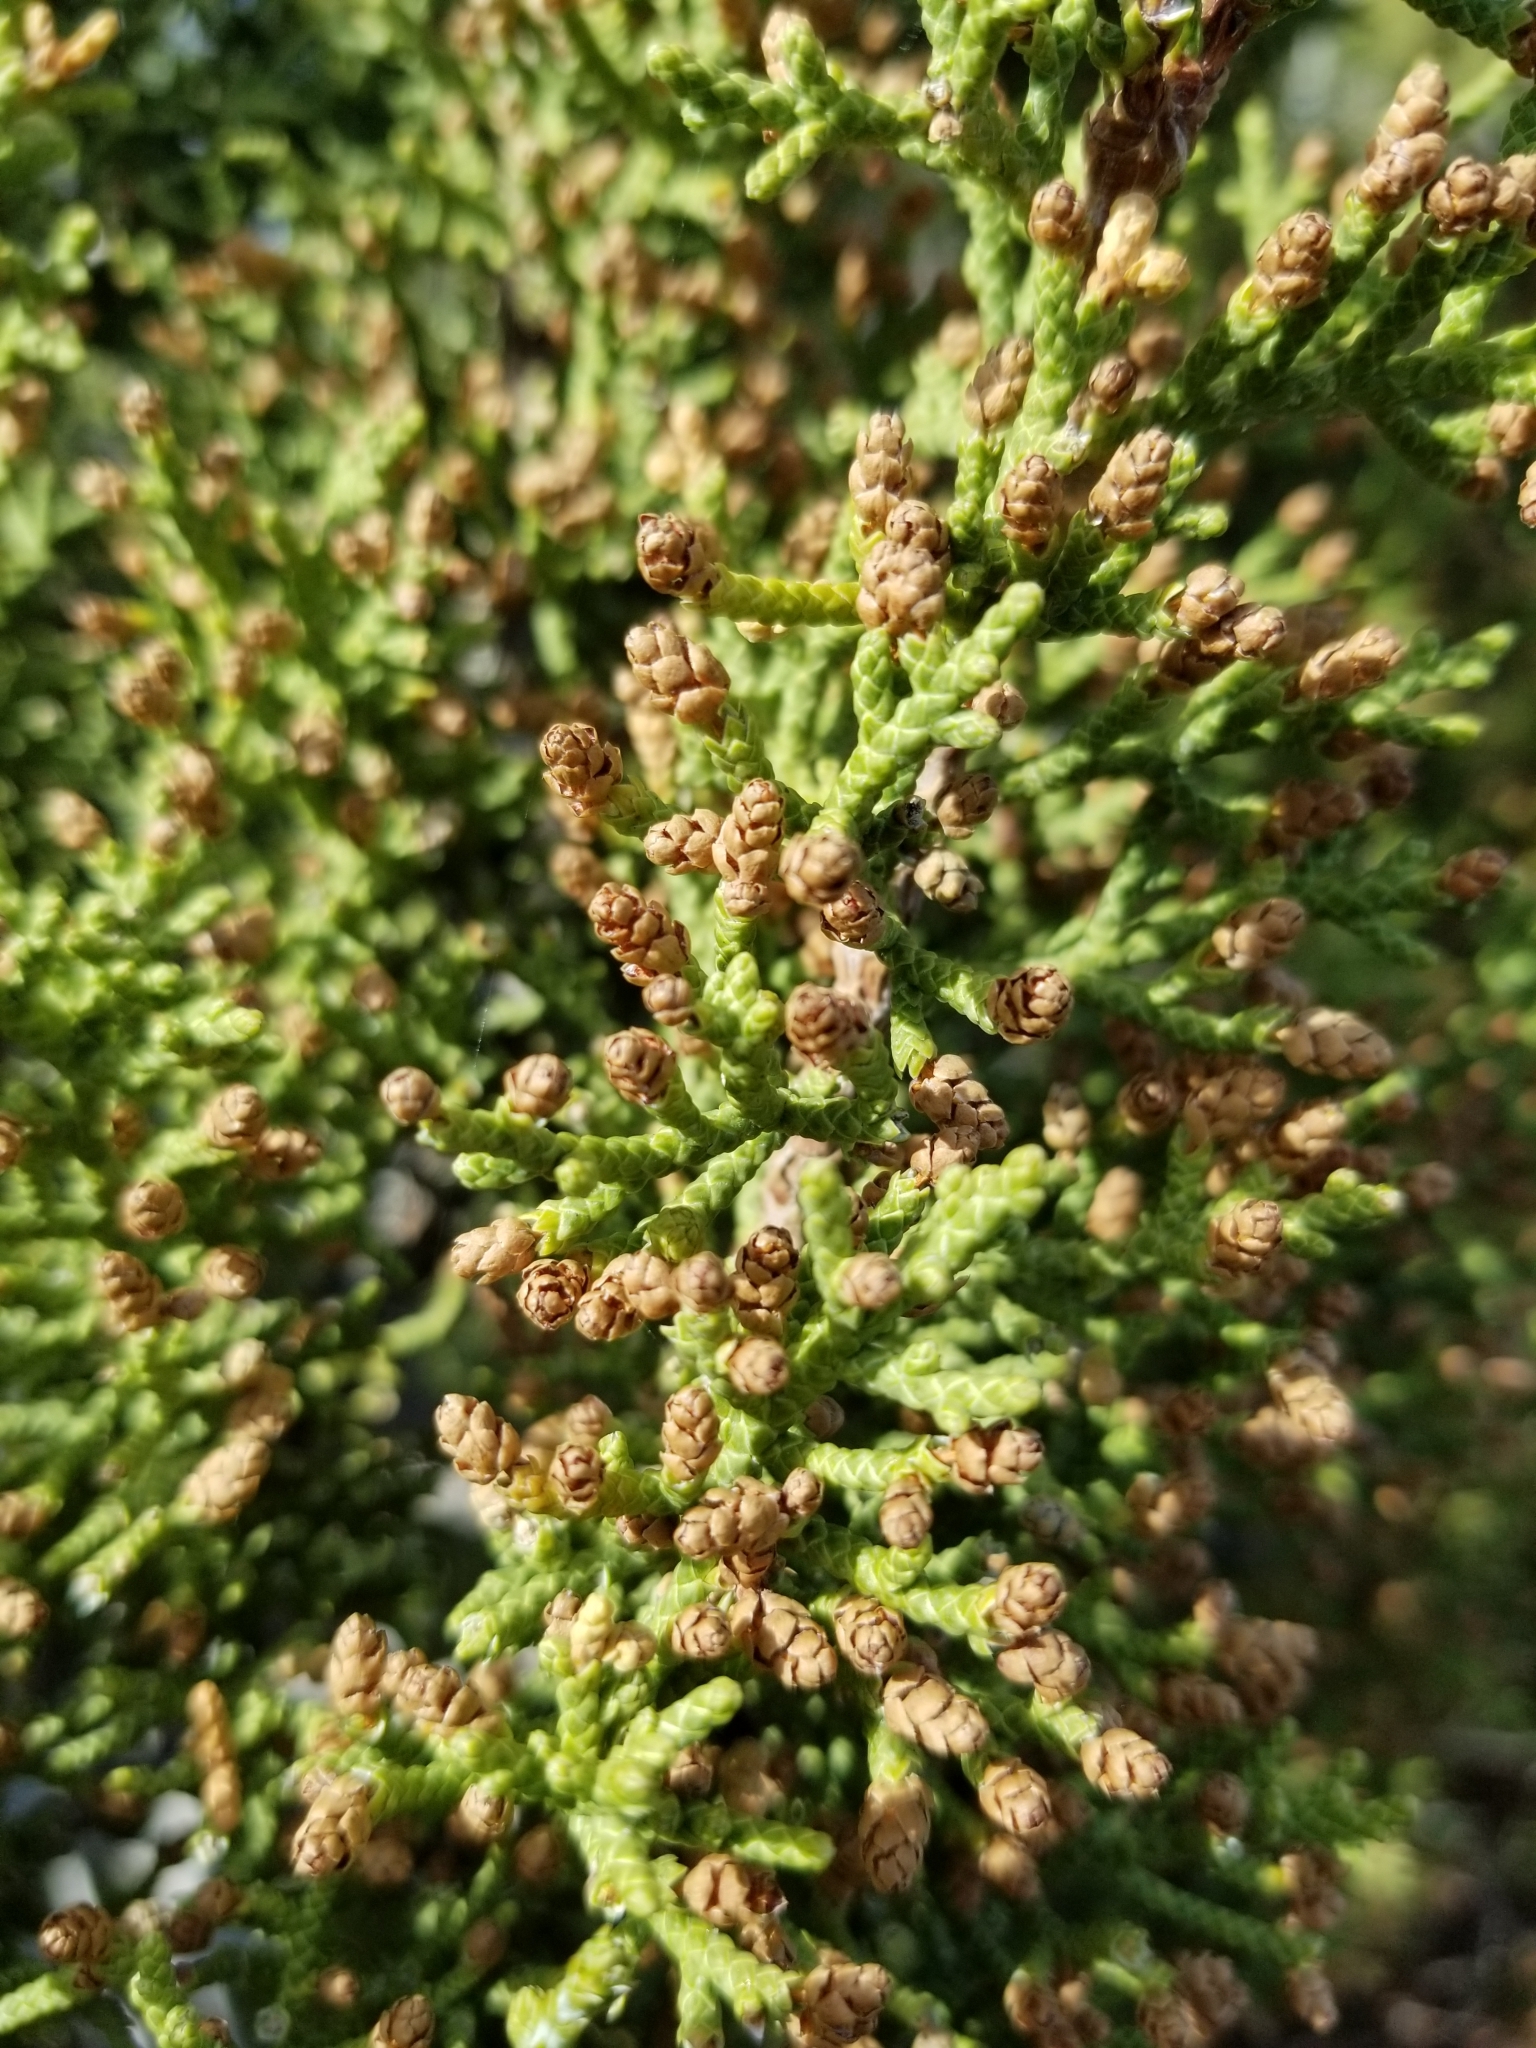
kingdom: Plantae
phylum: Tracheophyta
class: Pinopsida
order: Pinales
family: Cupressaceae
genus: Juniperus
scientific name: Juniperus californica
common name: California juniper
